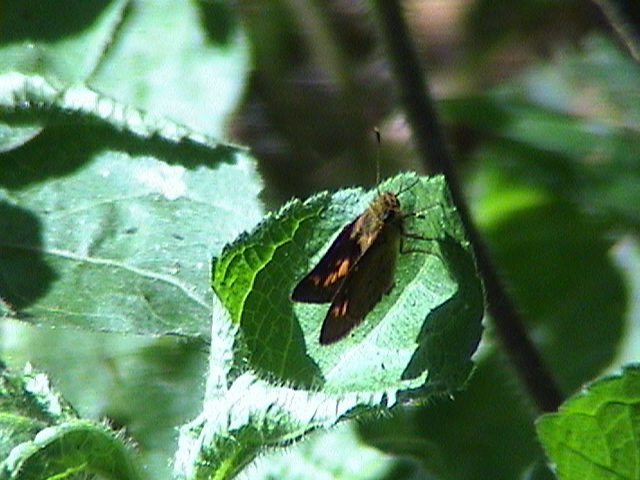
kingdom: Animalia
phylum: Arthropoda
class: Insecta
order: Lepidoptera
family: Hesperiidae
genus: Oriens
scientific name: Oriens concinna
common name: Sahyadri dartlet
